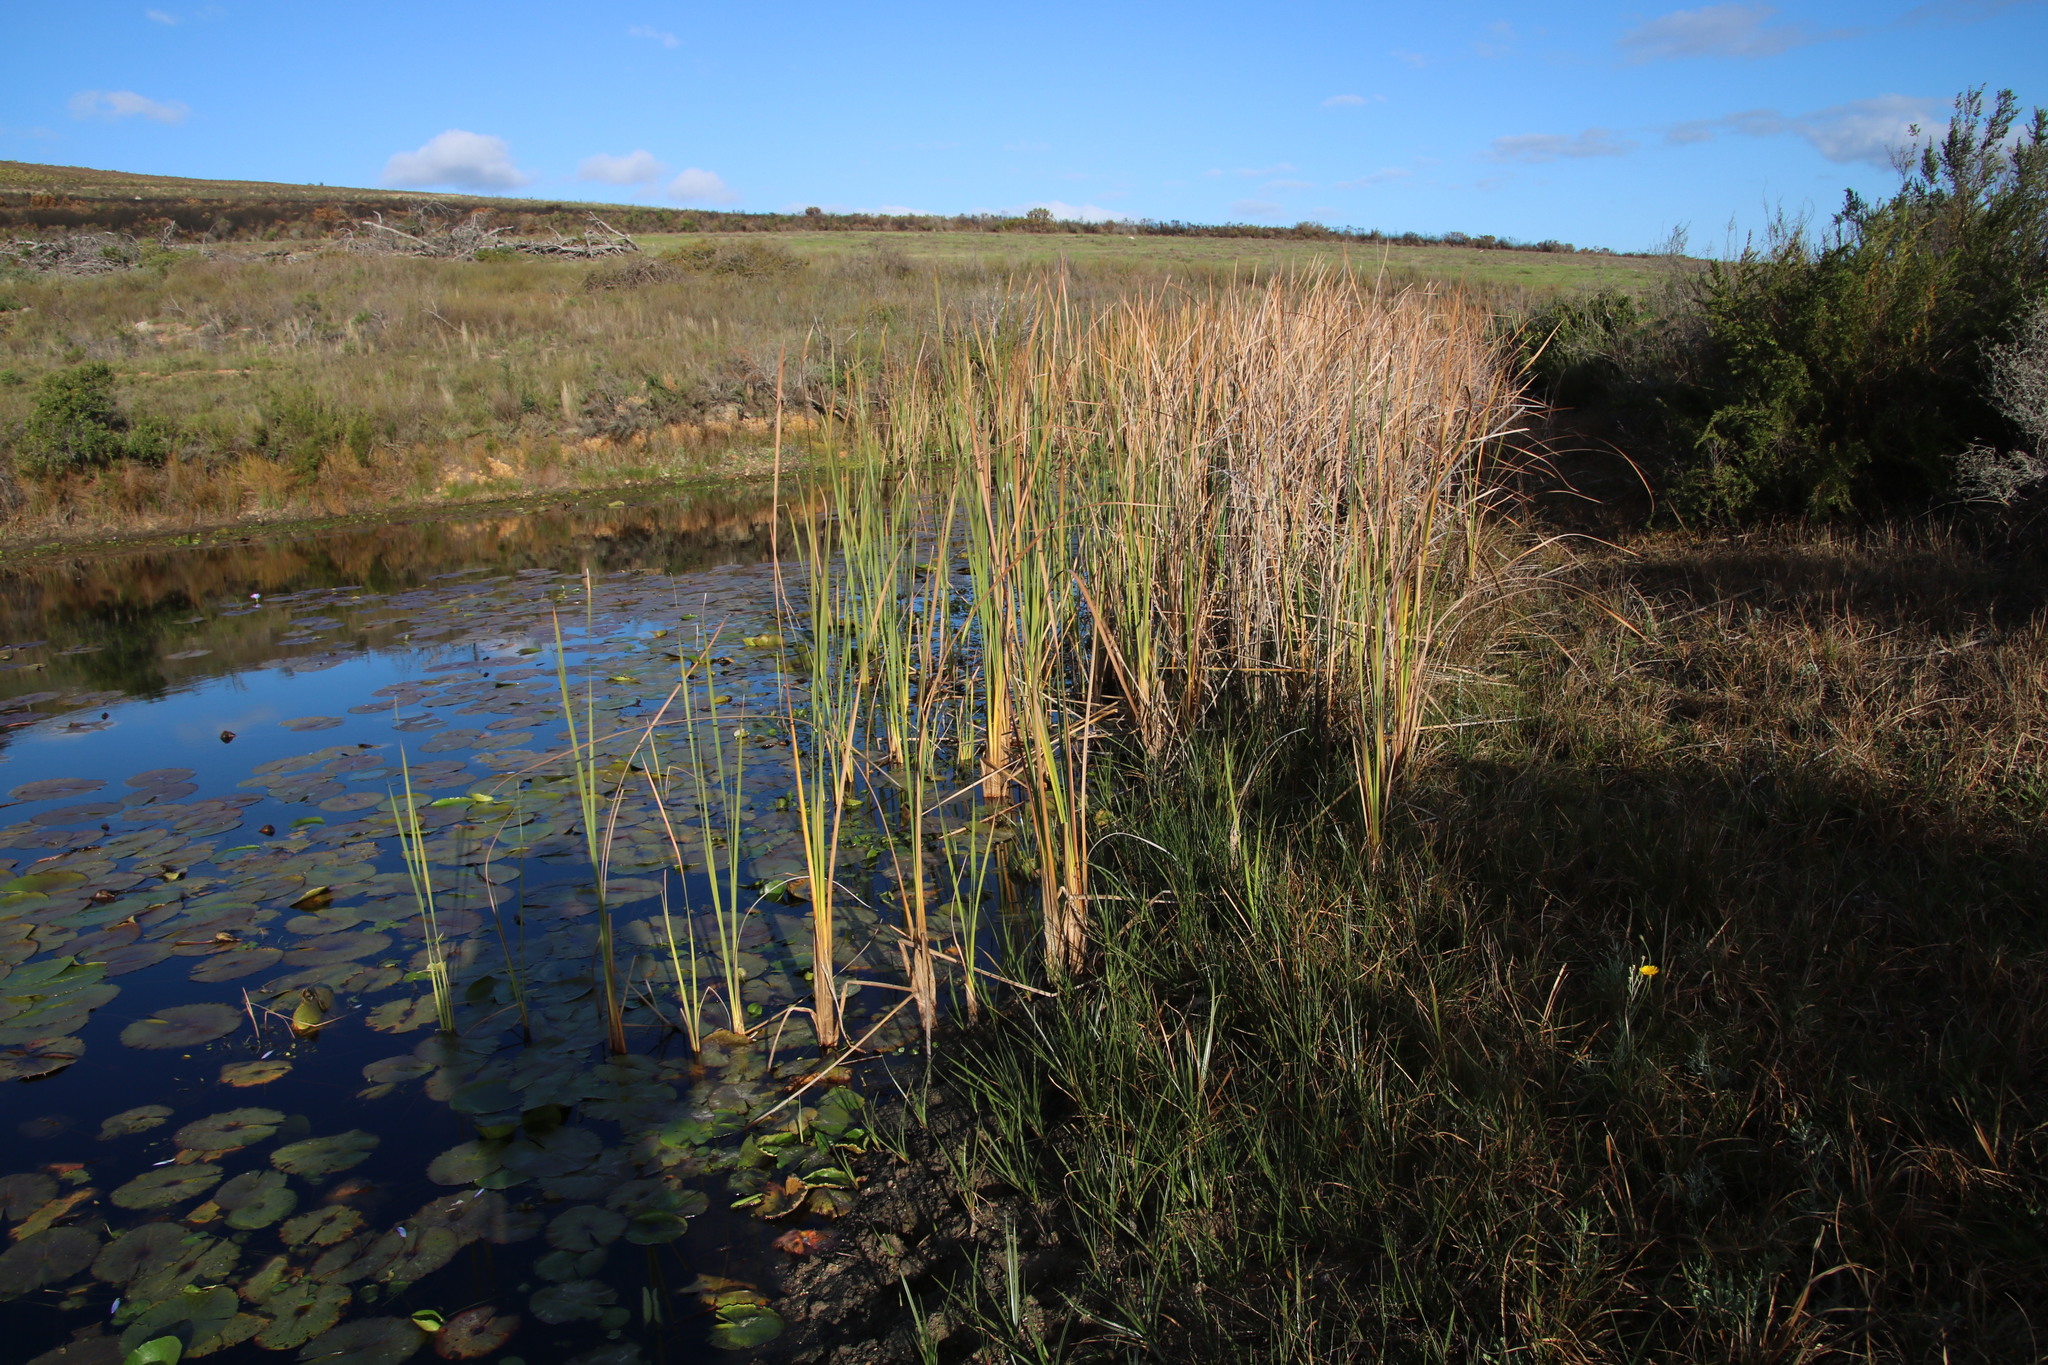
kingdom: Plantae
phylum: Tracheophyta
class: Liliopsida
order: Poales
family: Typhaceae
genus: Typha
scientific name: Typha capensis
